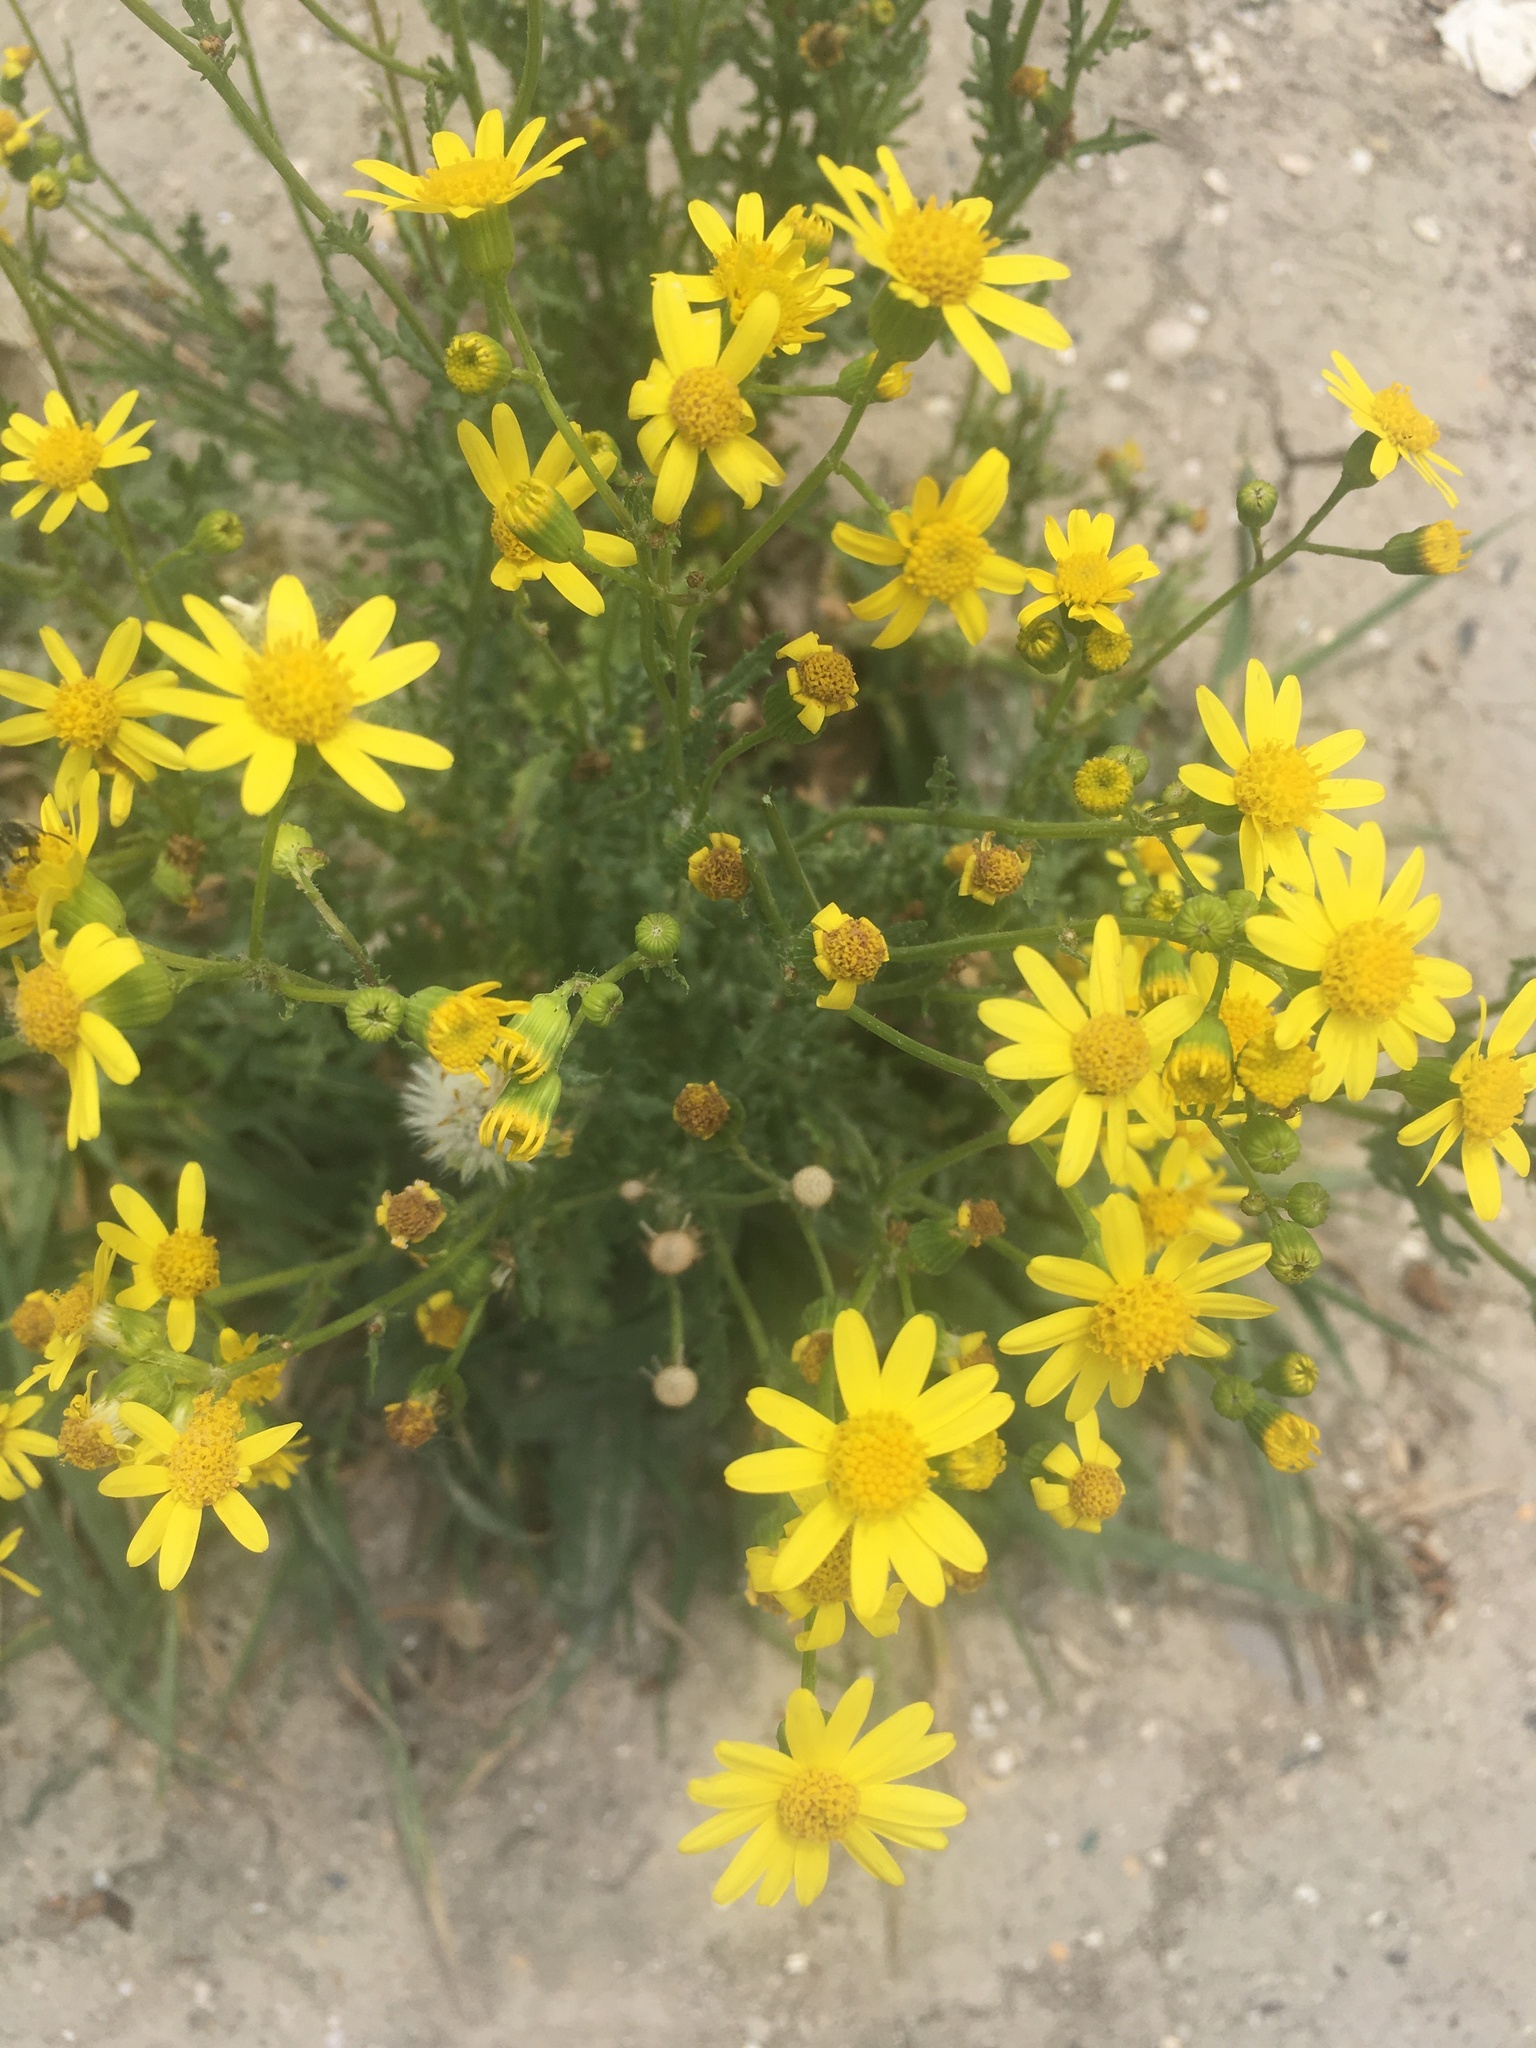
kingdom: Plantae
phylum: Tracheophyta
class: Magnoliopsida
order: Asterales
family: Asteraceae
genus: Senecio
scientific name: Senecio vernalis
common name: Eastern groundsel
